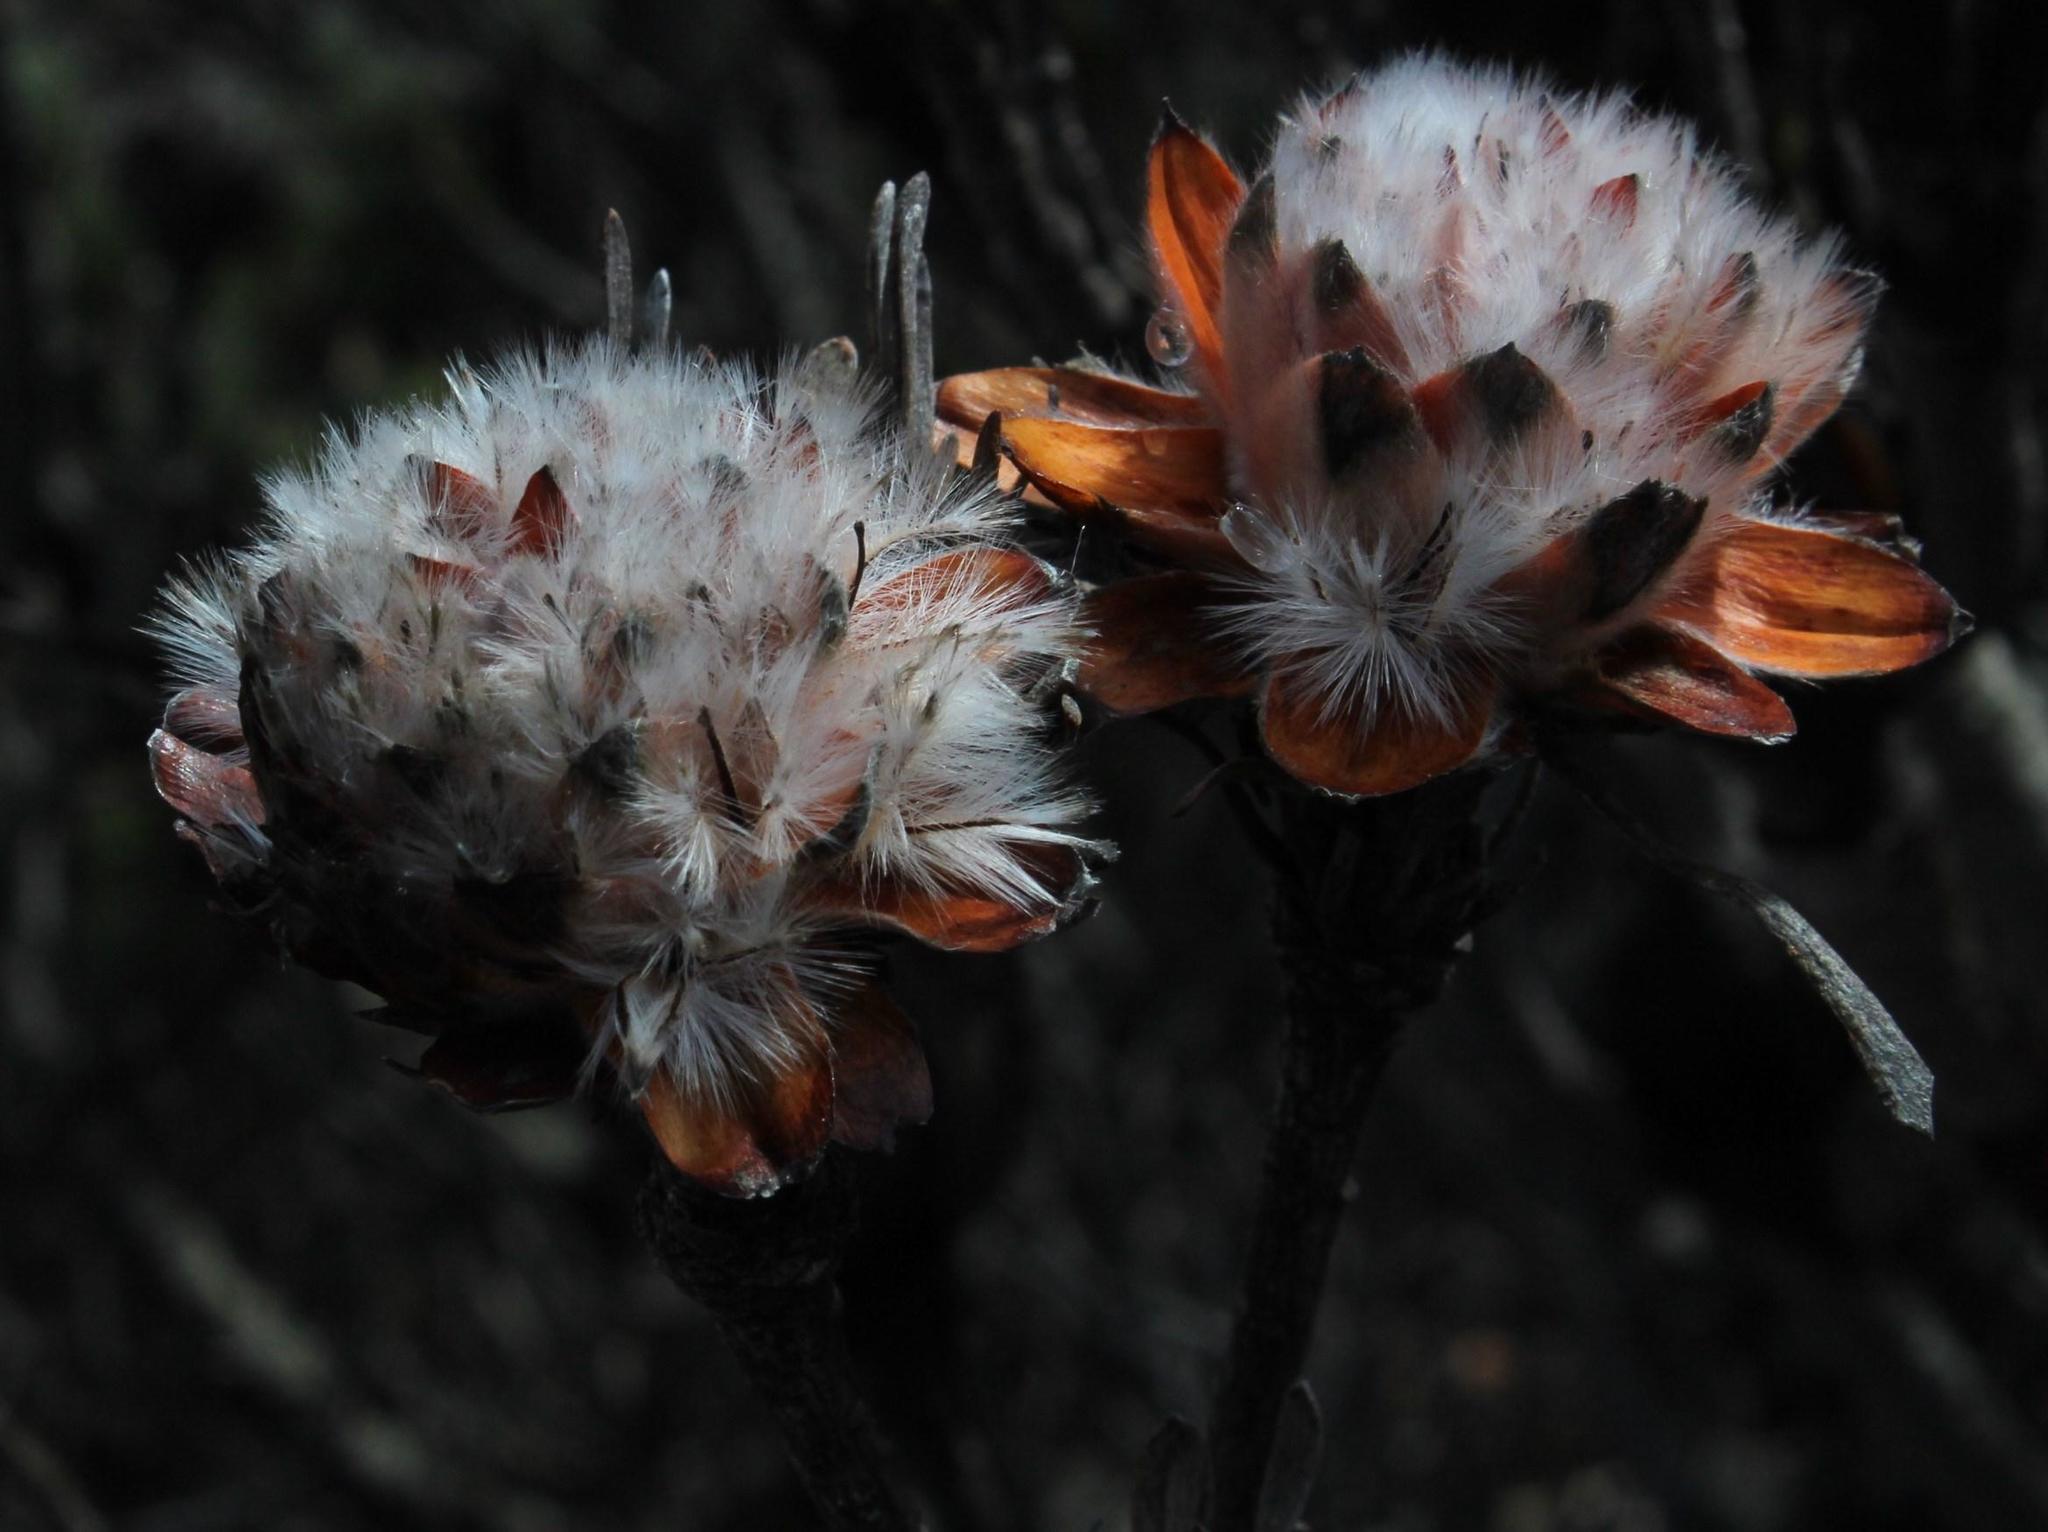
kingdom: Plantae
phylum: Tracheophyta
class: Magnoliopsida
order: Proteales
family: Proteaceae
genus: Leucadendron
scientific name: Leucadendron dregei
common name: Summit conebush
